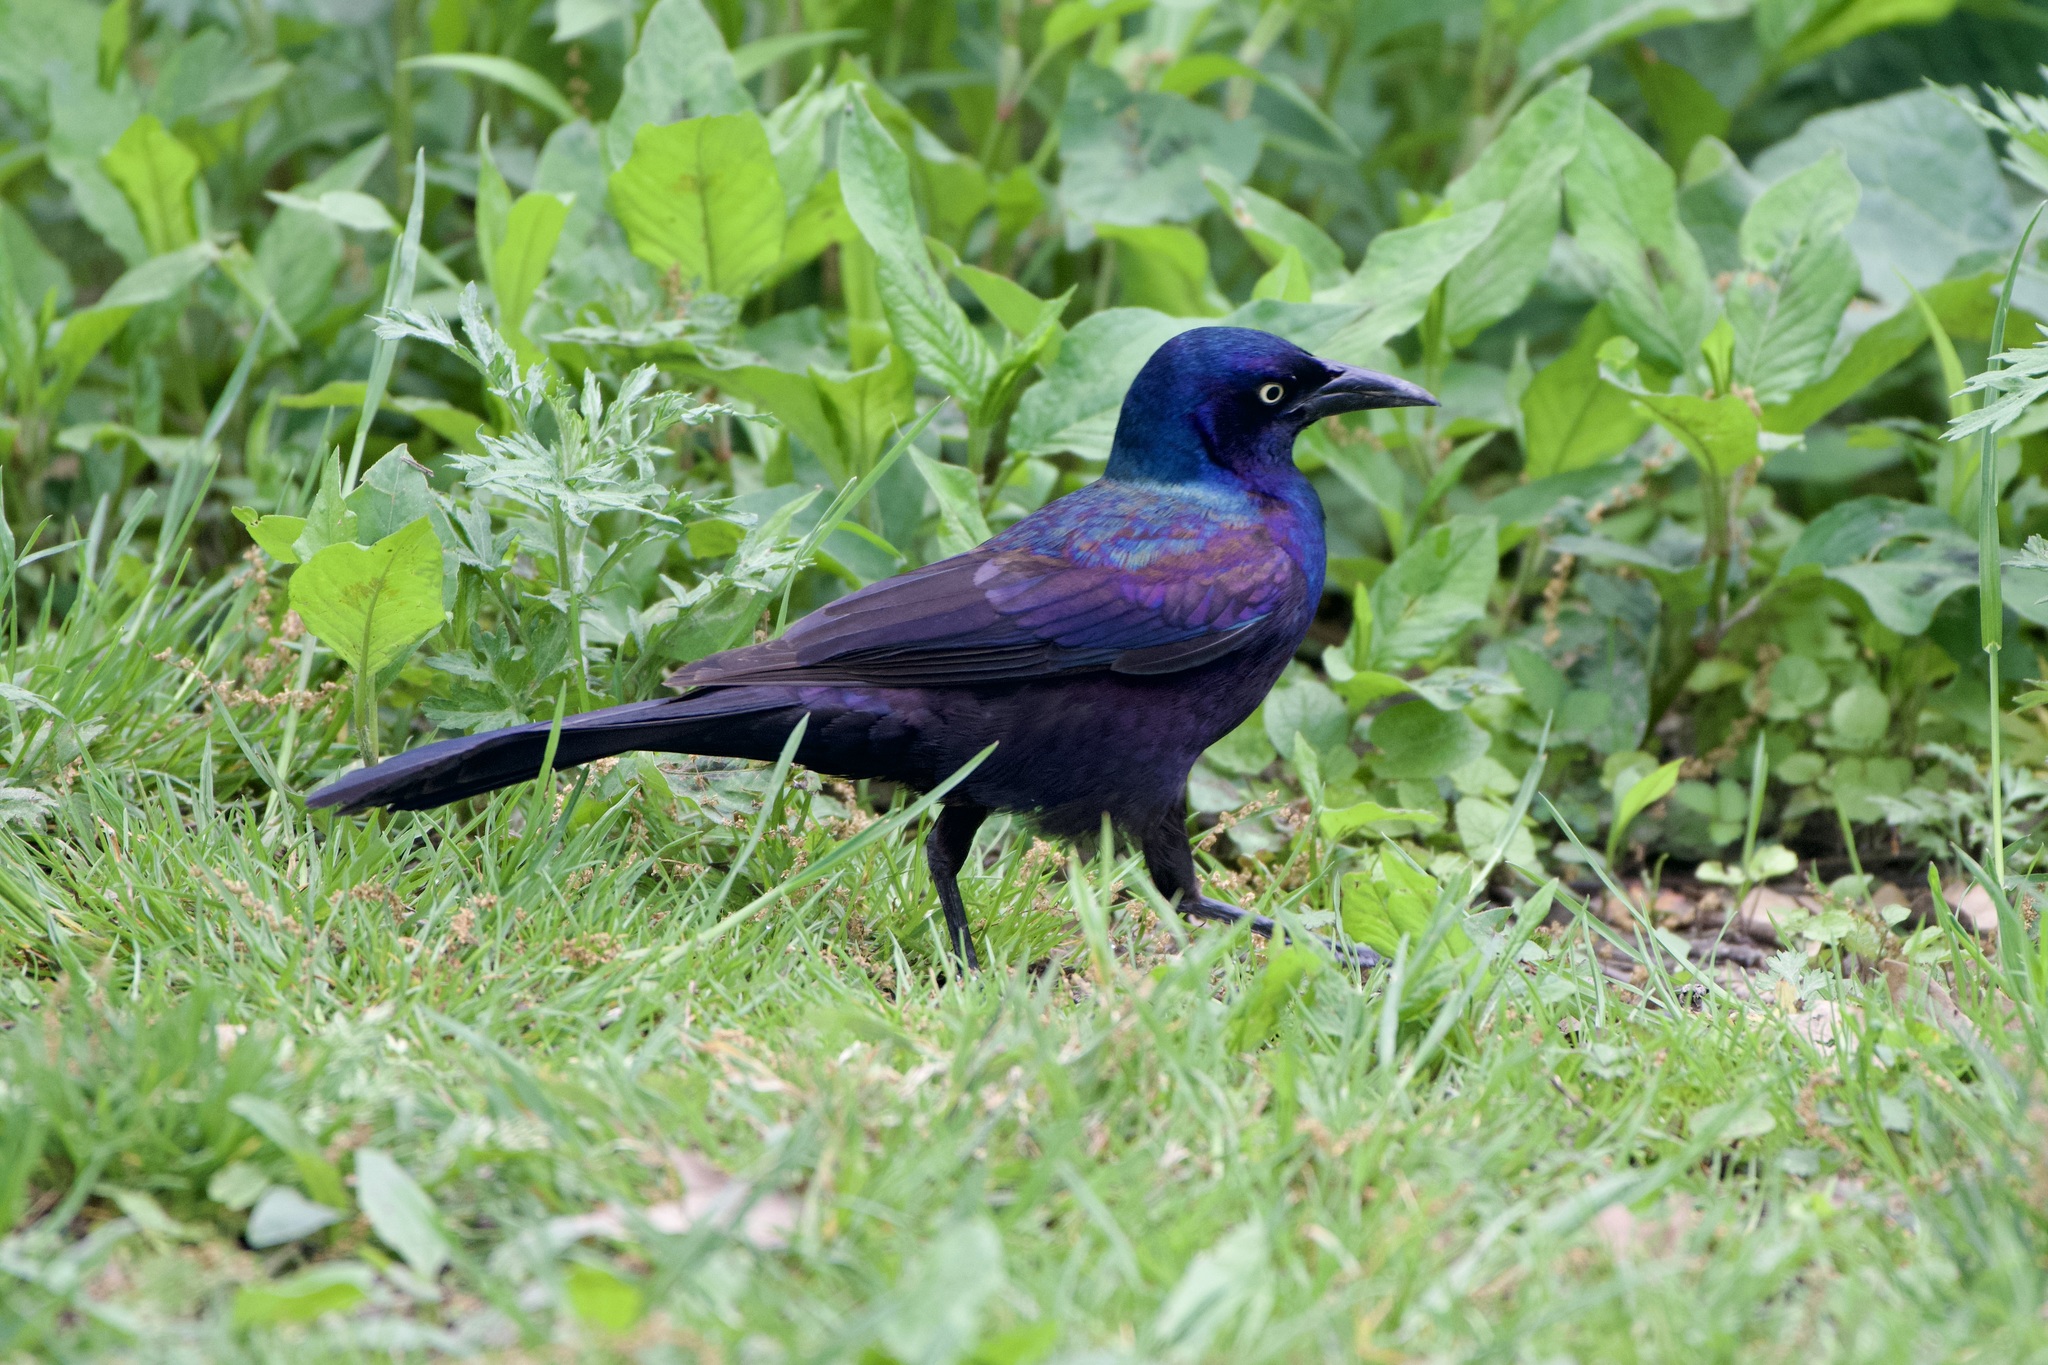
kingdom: Animalia
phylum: Chordata
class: Aves
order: Passeriformes
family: Icteridae
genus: Quiscalus
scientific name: Quiscalus quiscula
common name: Common grackle
